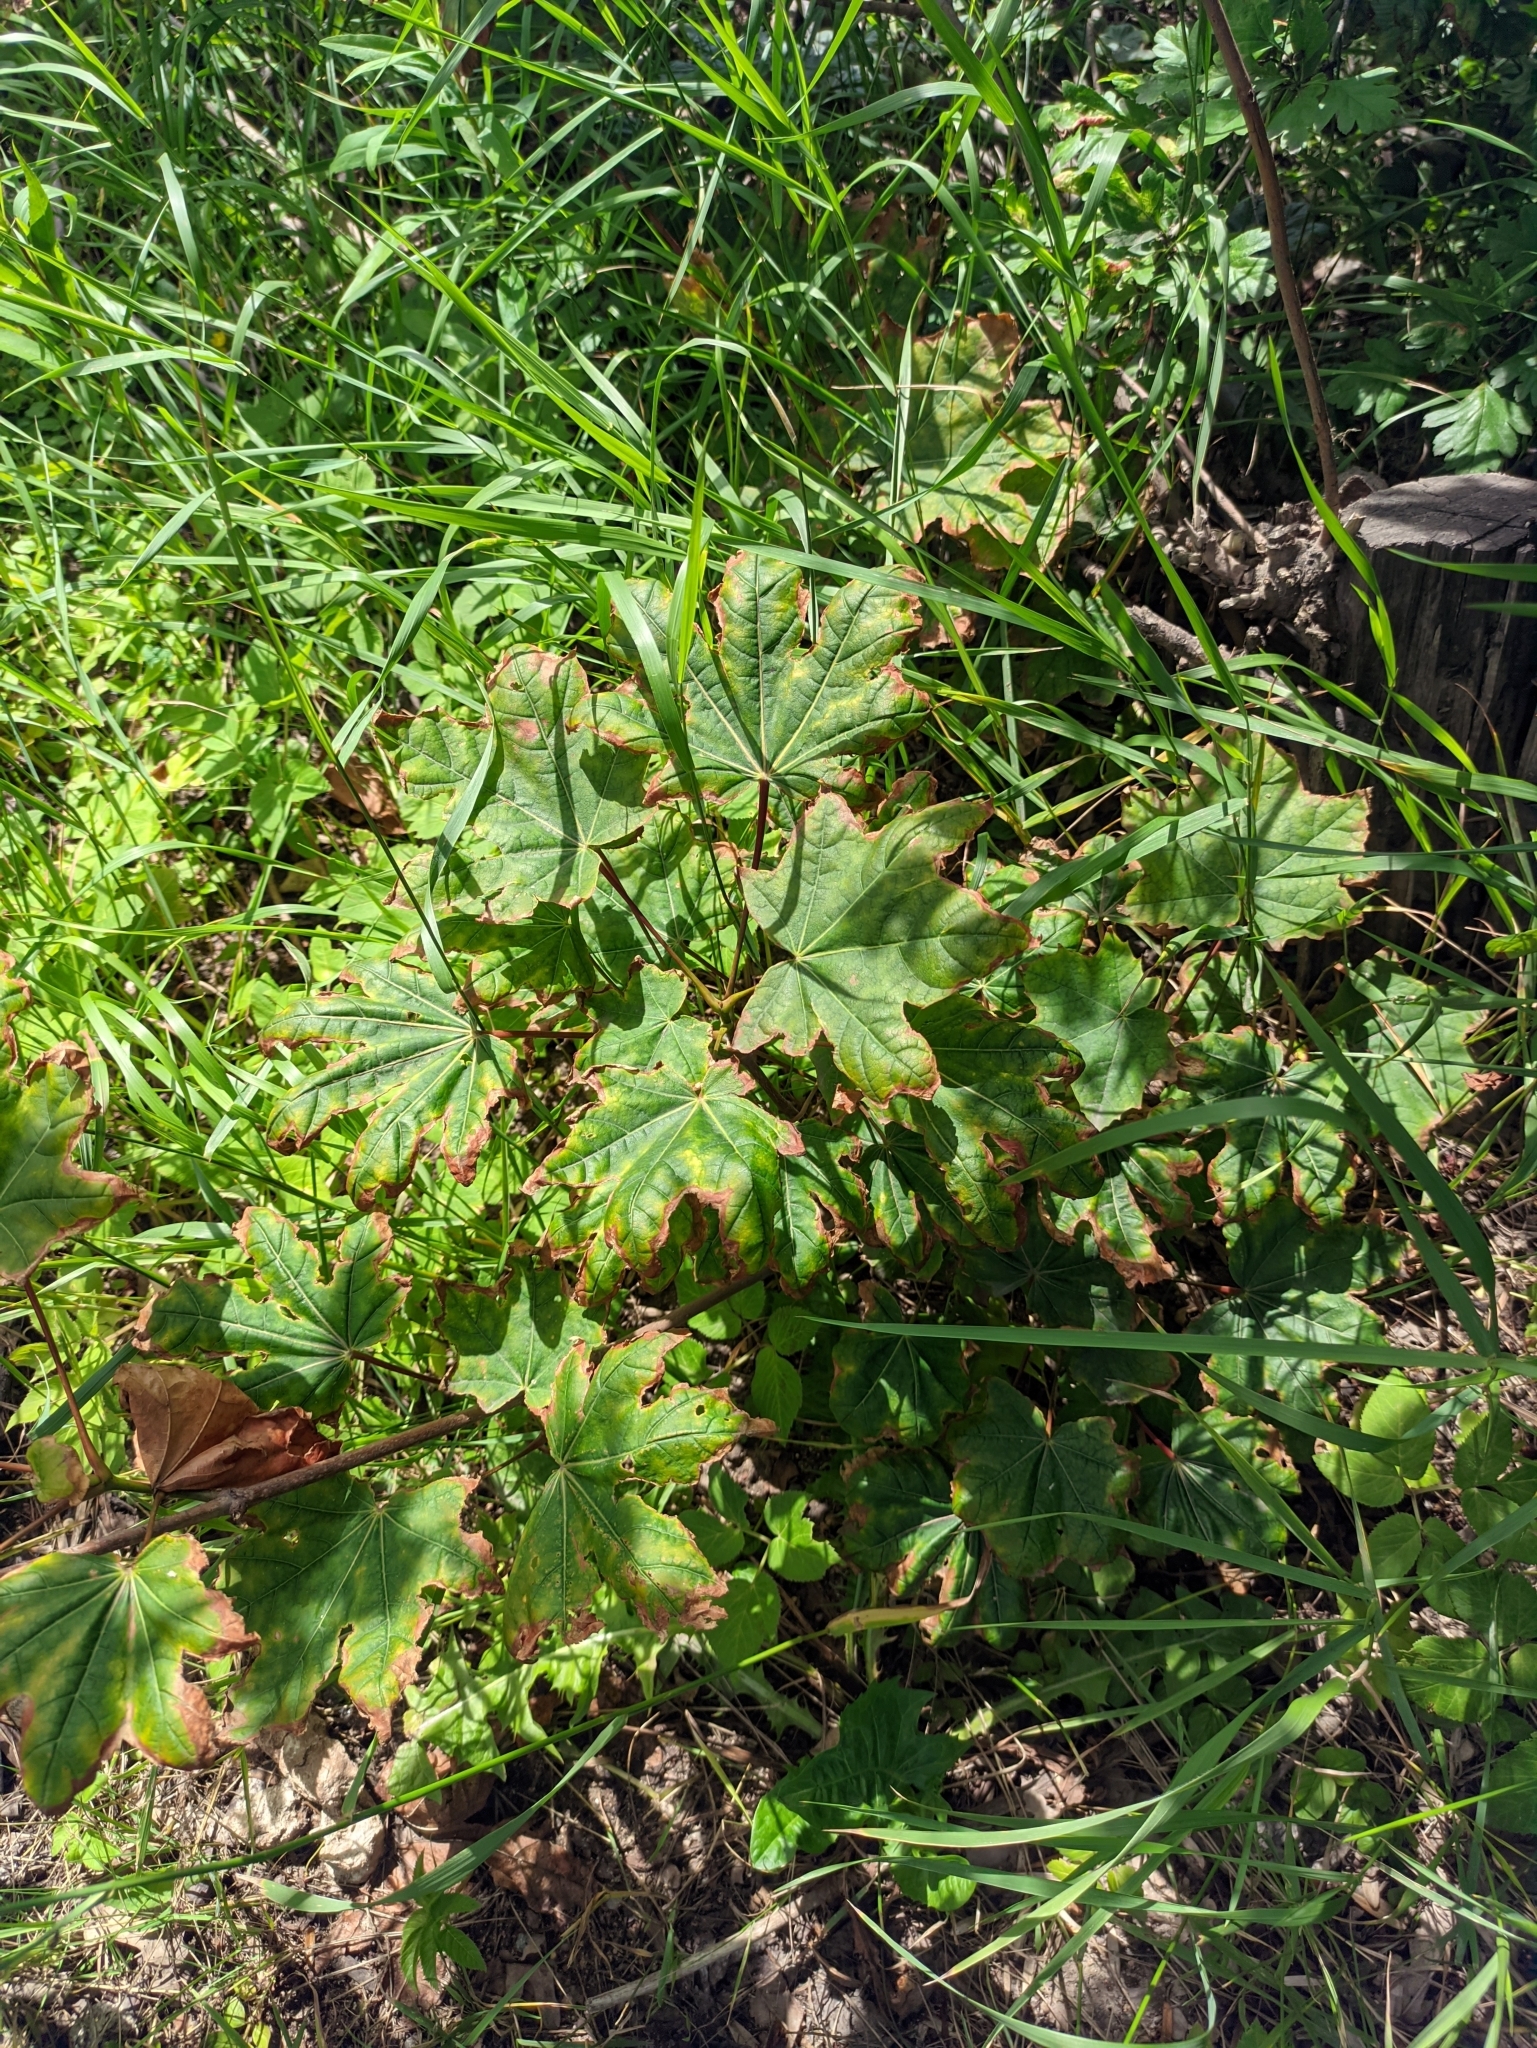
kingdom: Plantae
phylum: Tracheophyta
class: Magnoliopsida
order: Sapindales
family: Sapindaceae
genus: Acer
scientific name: Acer platanoides
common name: Norway maple
